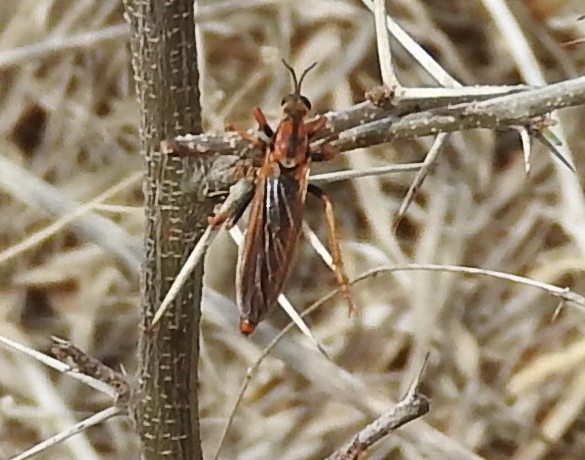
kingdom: Animalia
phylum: Arthropoda
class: Insecta
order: Diptera
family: Asilidae
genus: Stenopogon
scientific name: Stenopogon tequilae
